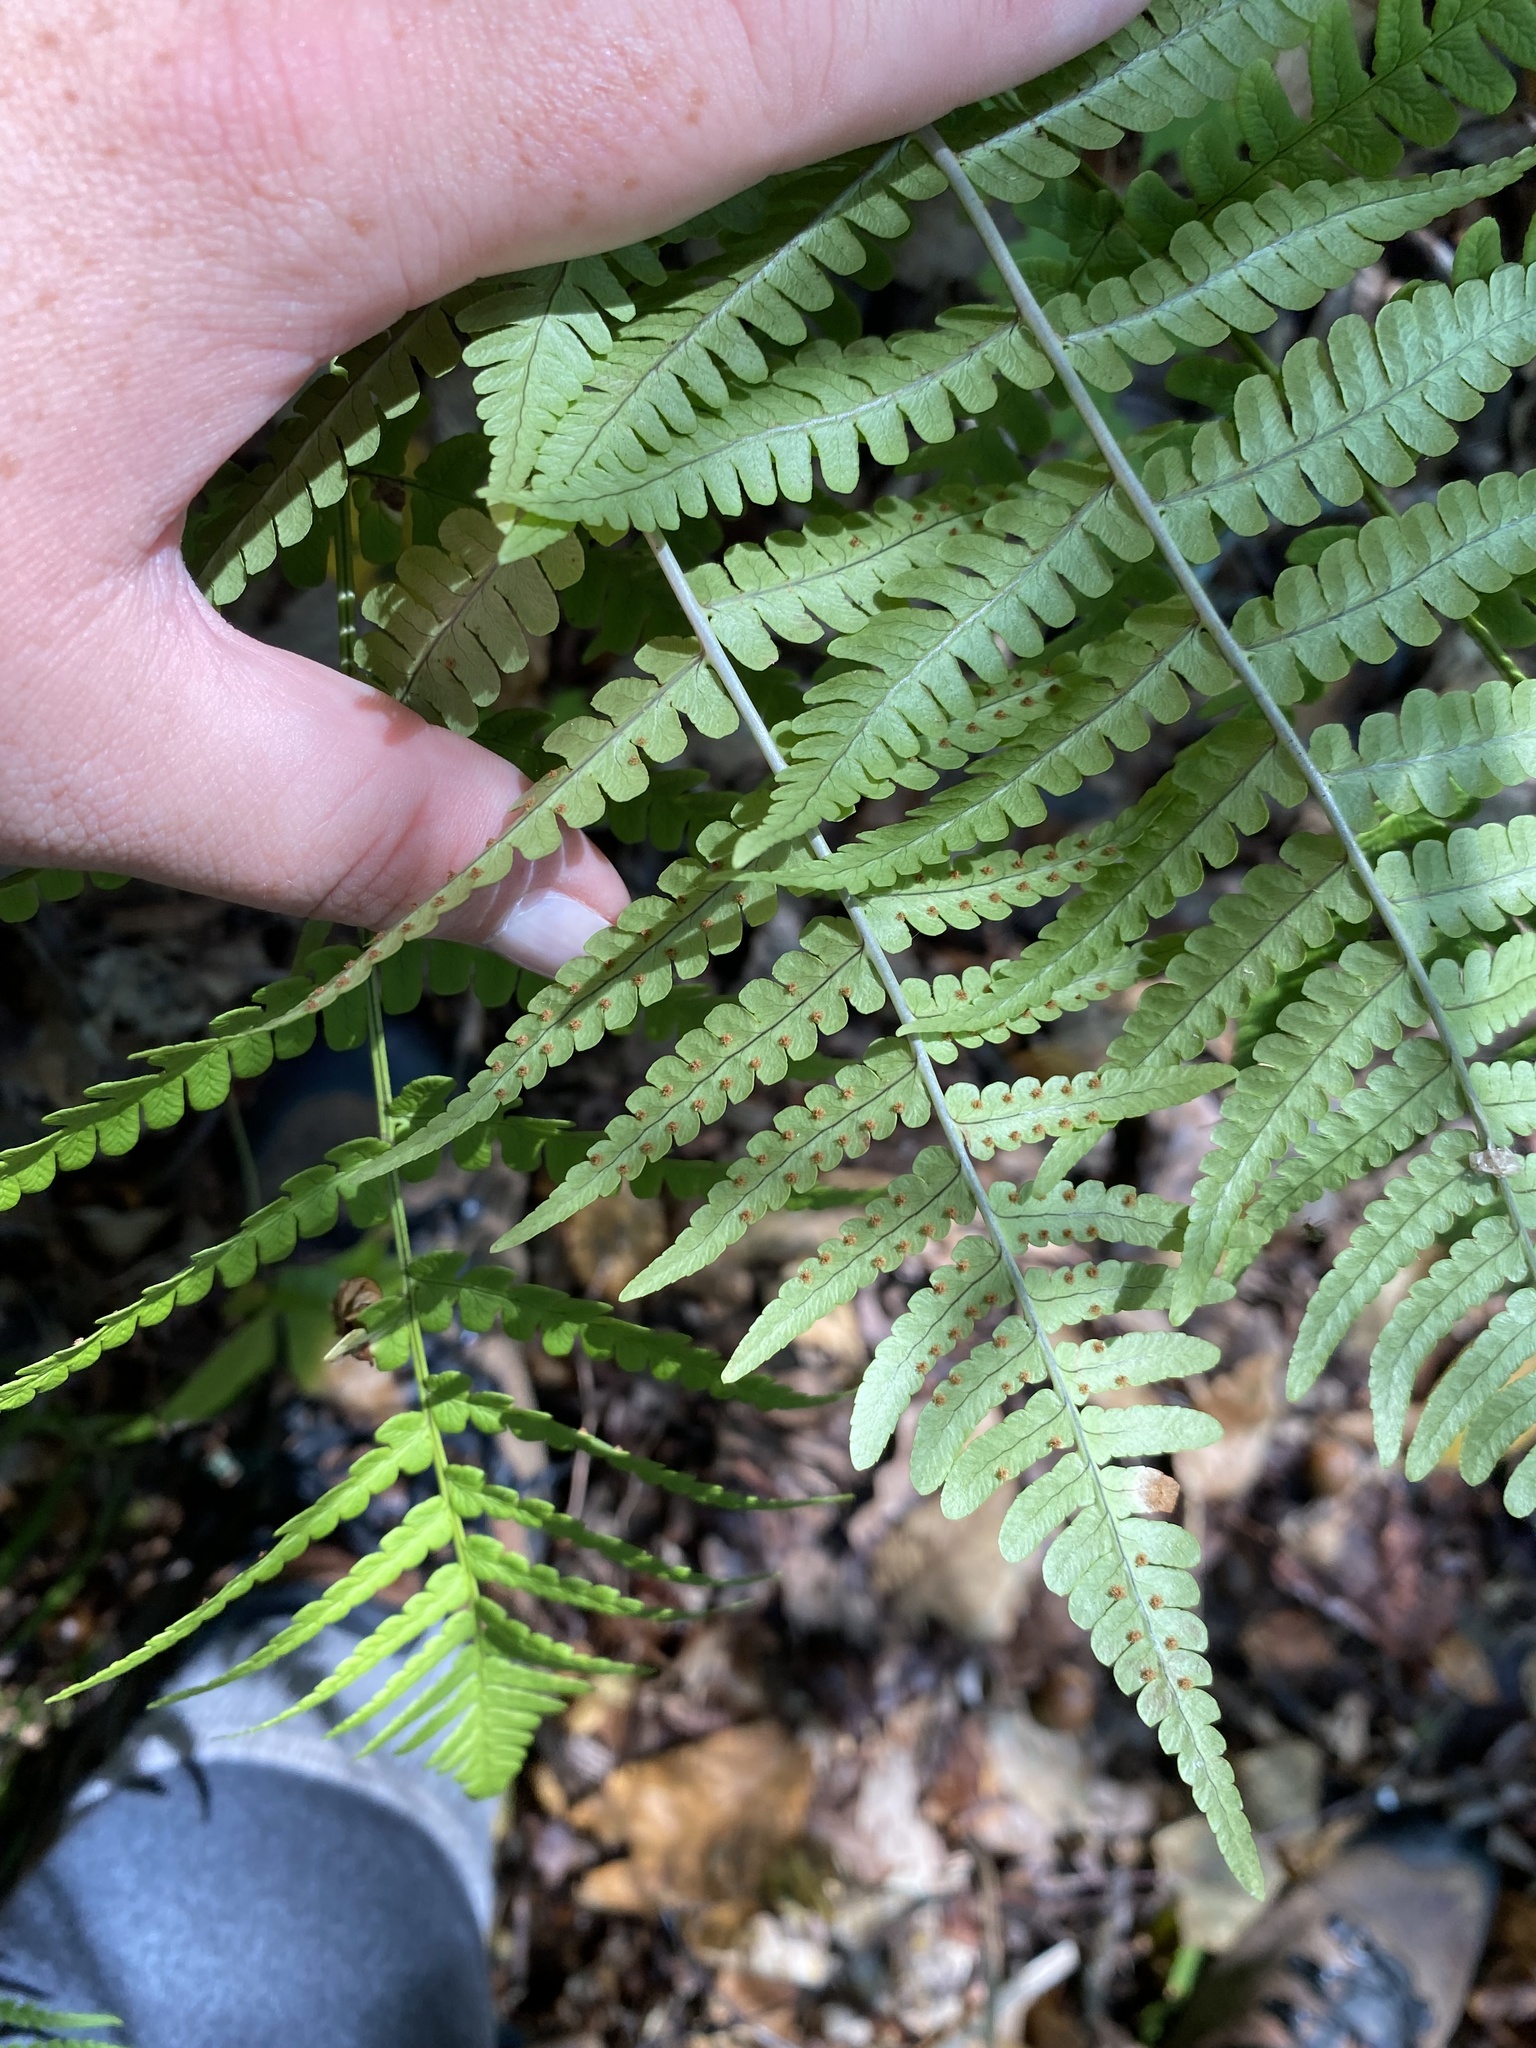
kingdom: Plantae
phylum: Tracheophyta
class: Polypodiopsida
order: Polypodiales
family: Dryopteridaceae
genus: Dryopteris
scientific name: Dryopteris marginalis
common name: Marginal wood fern
